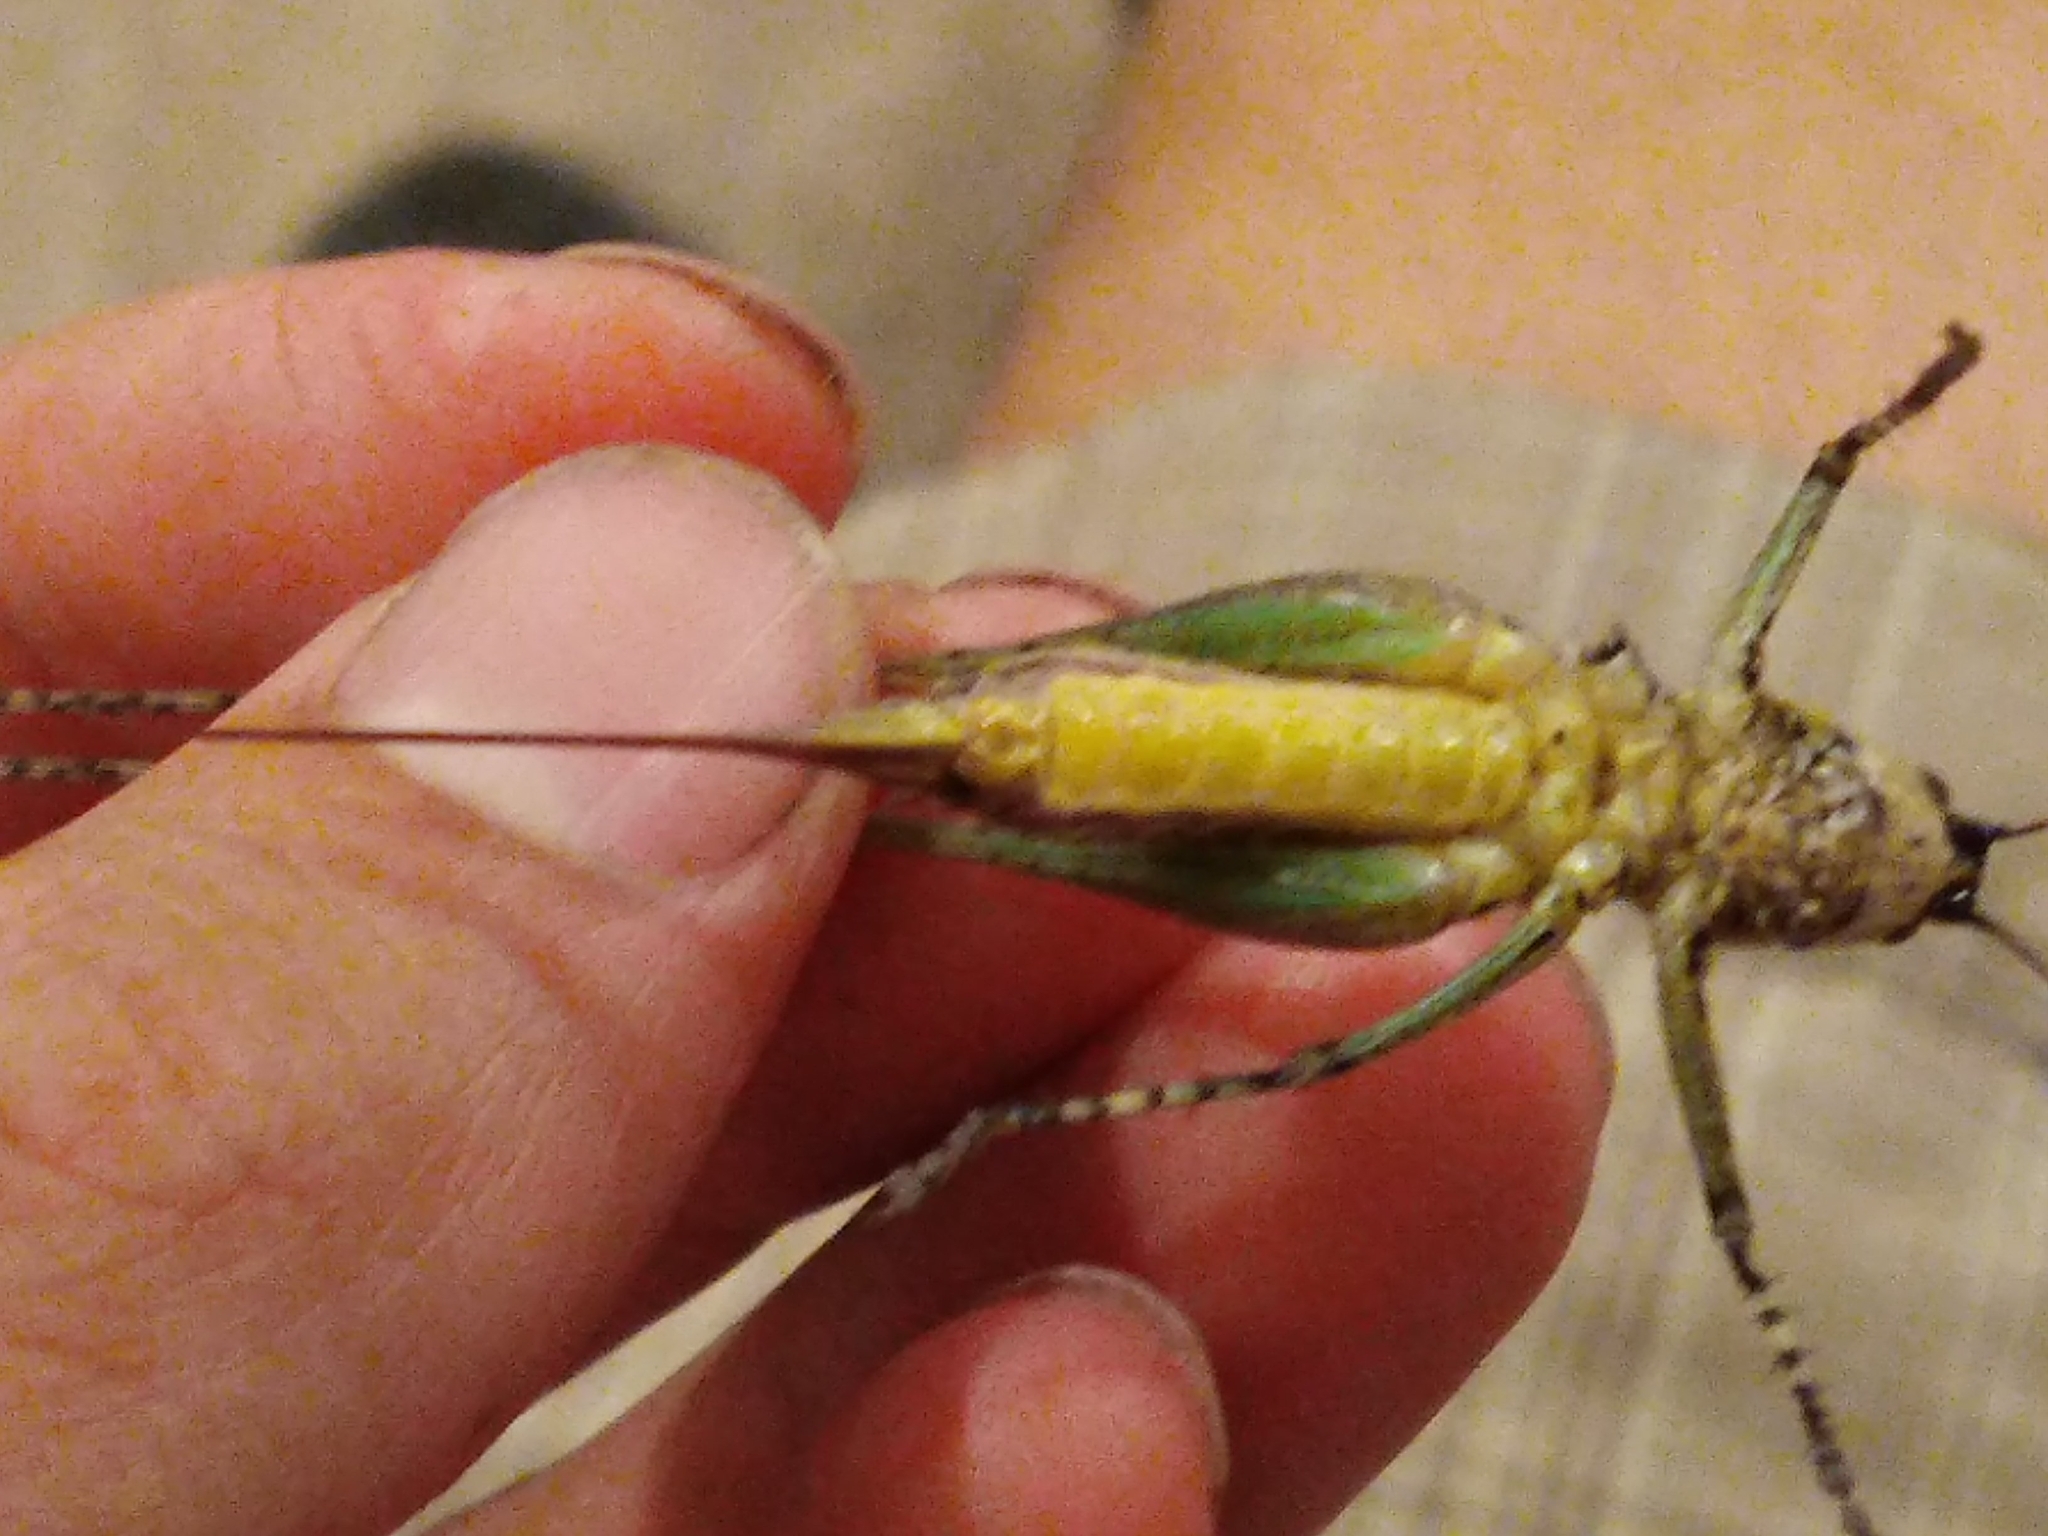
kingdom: Animalia
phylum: Arthropoda
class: Insecta
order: Orthoptera
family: Tettigoniidae
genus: Rhacocleis
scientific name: Rhacocleis annulata
